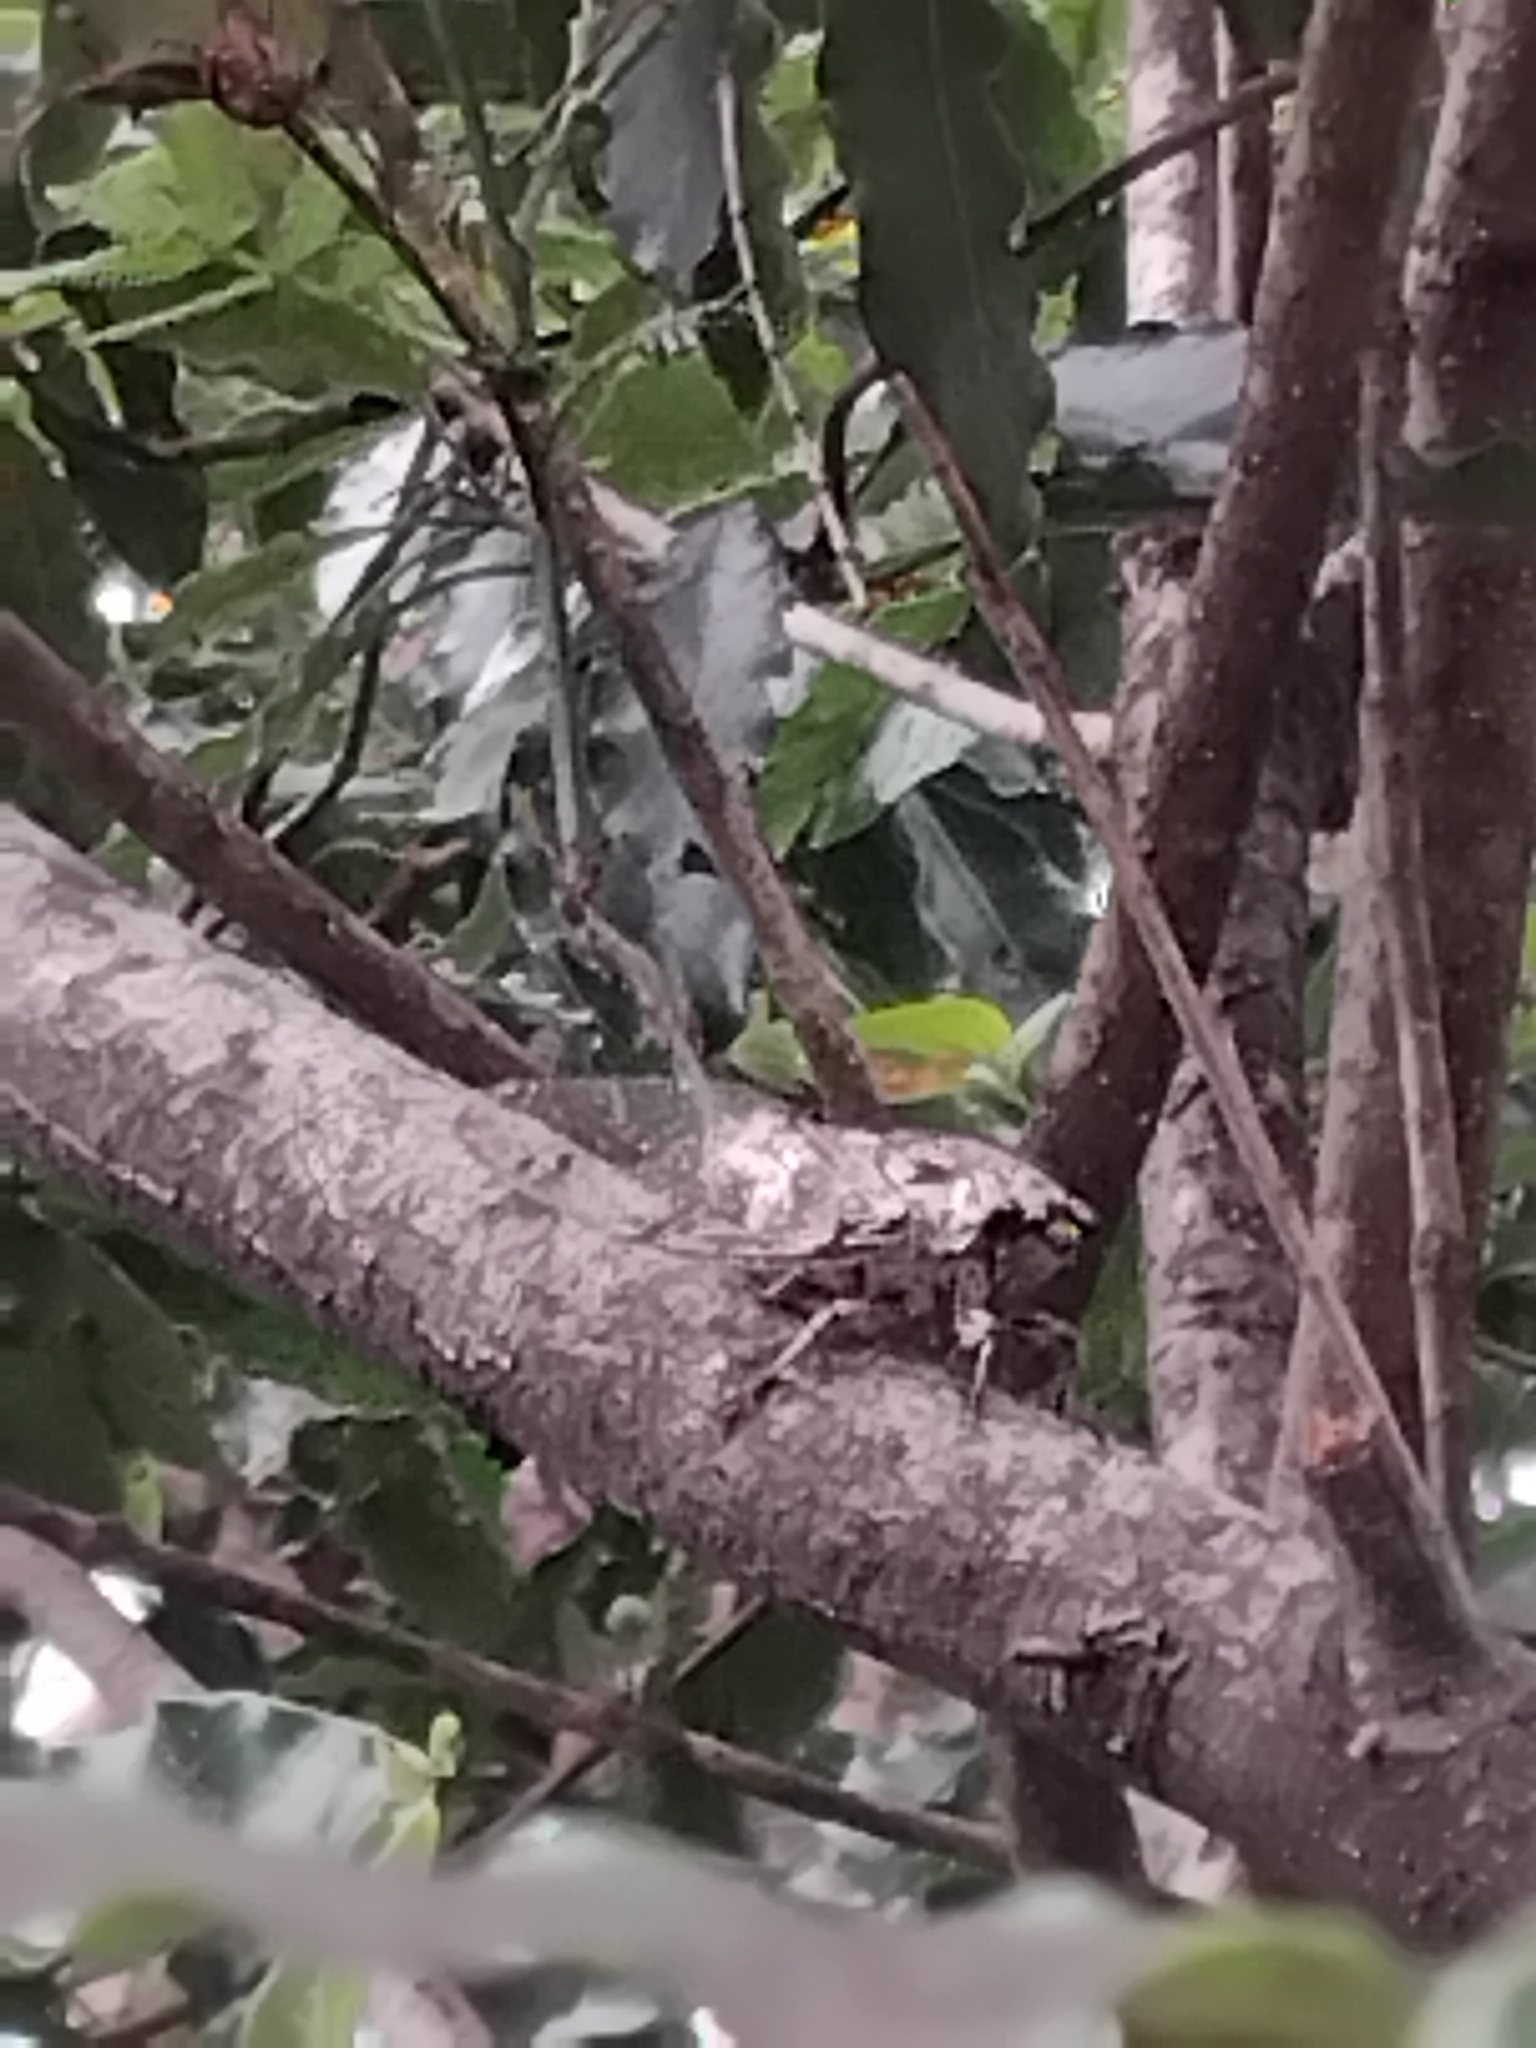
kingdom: Animalia
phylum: Arthropoda
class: Insecta
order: Hemiptera
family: Cicadidae
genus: Aleeta
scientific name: Aleeta curvicosta
